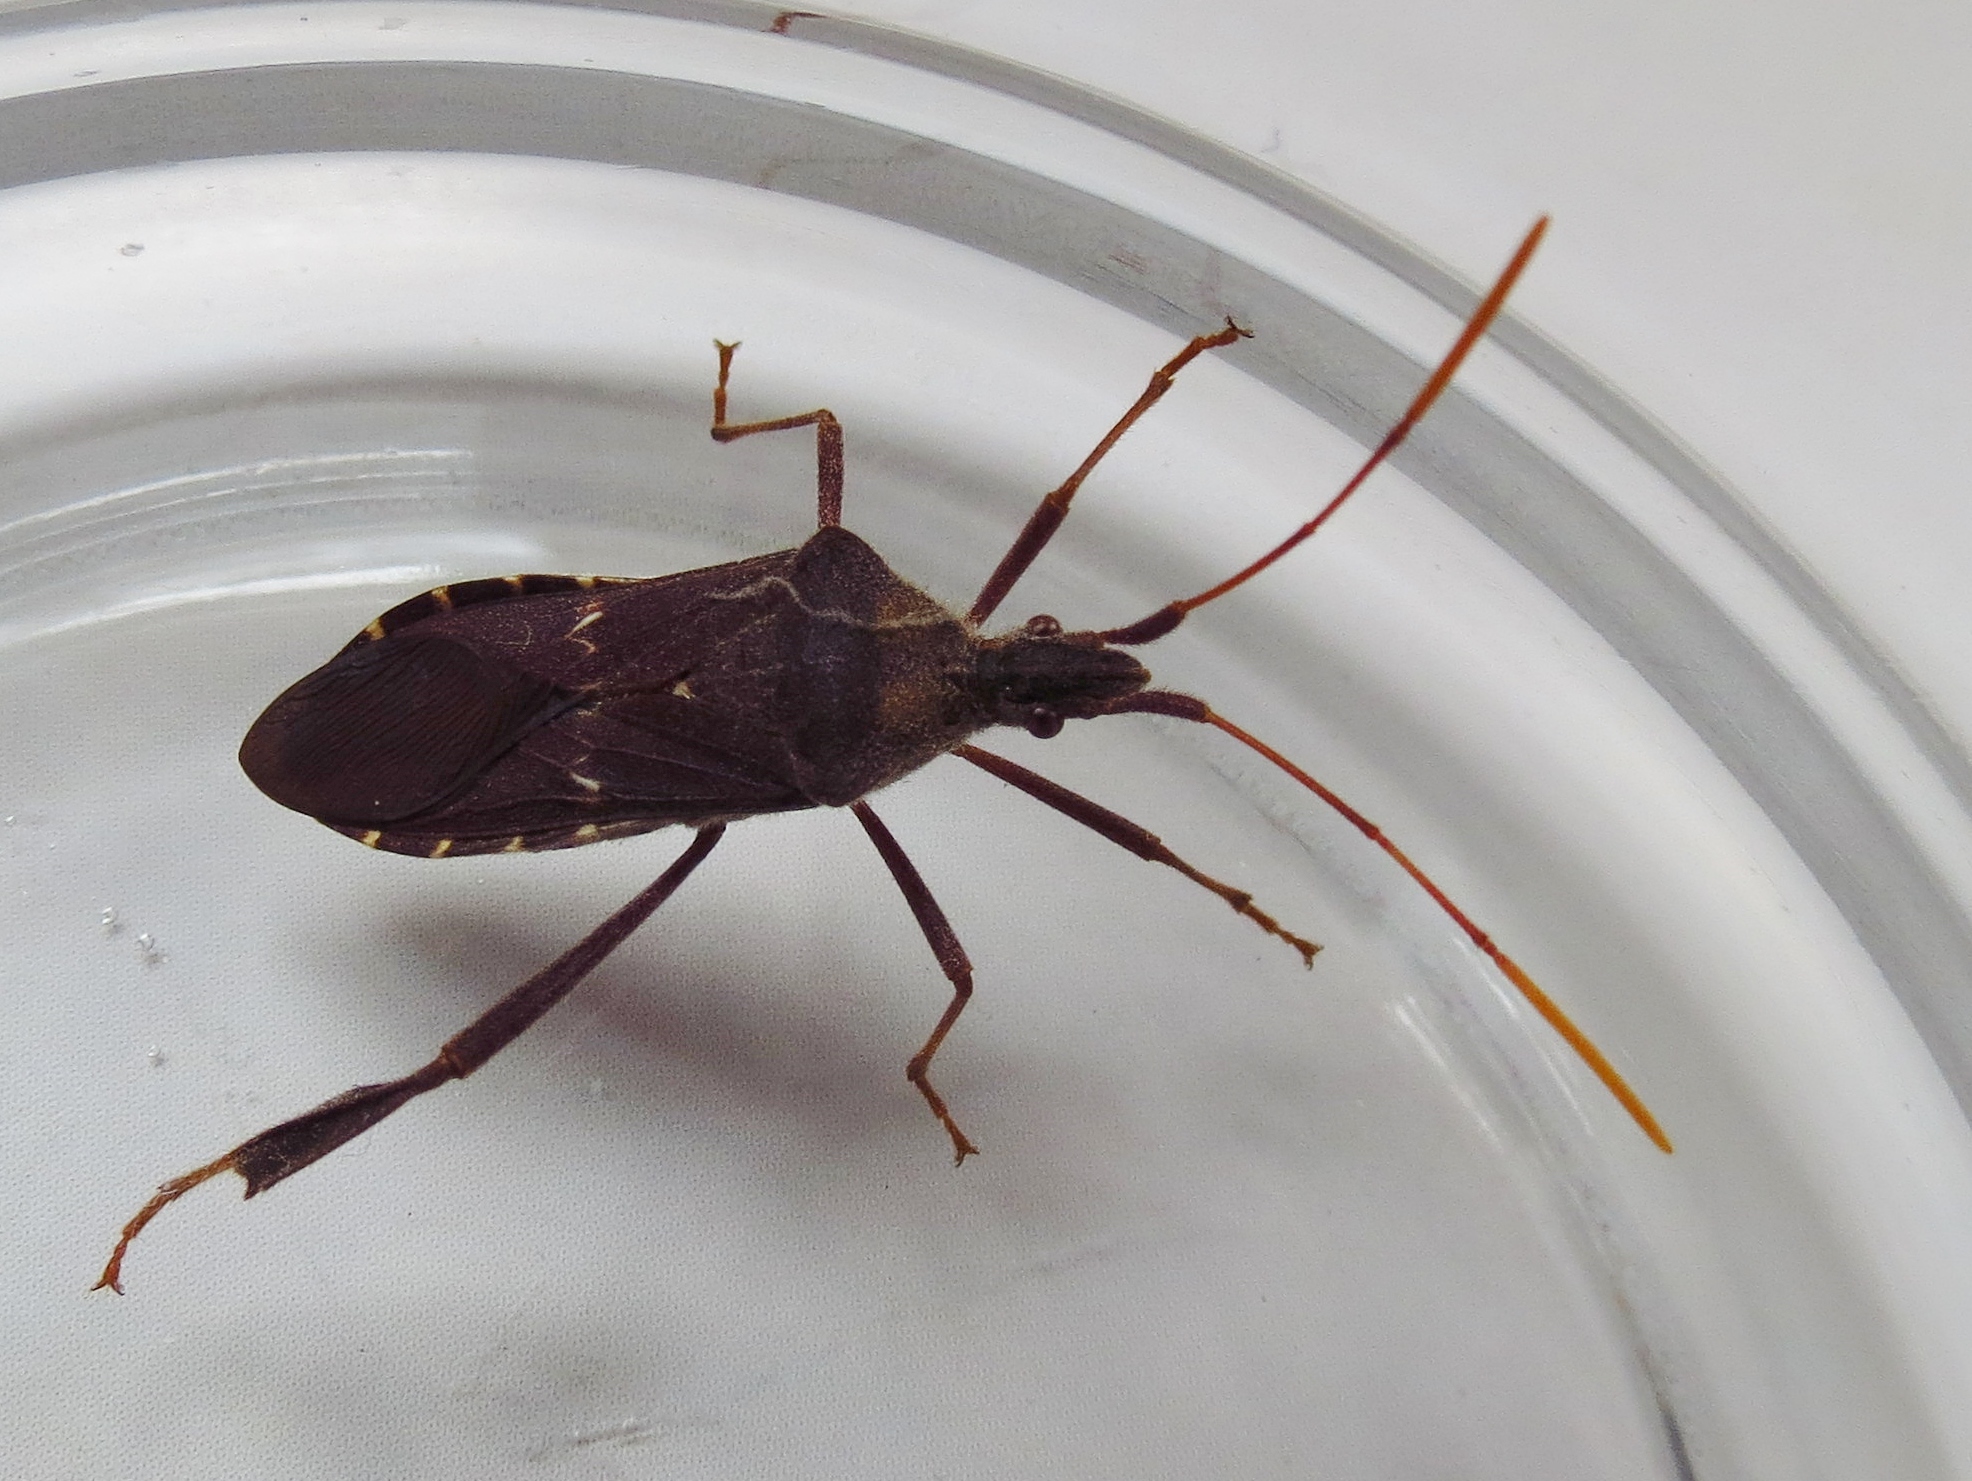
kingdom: Animalia
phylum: Arthropoda
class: Insecta
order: Hemiptera
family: Coreidae
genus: Leptoglossus
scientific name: Leptoglossus oppositus
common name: Northern leaf-footed bug
